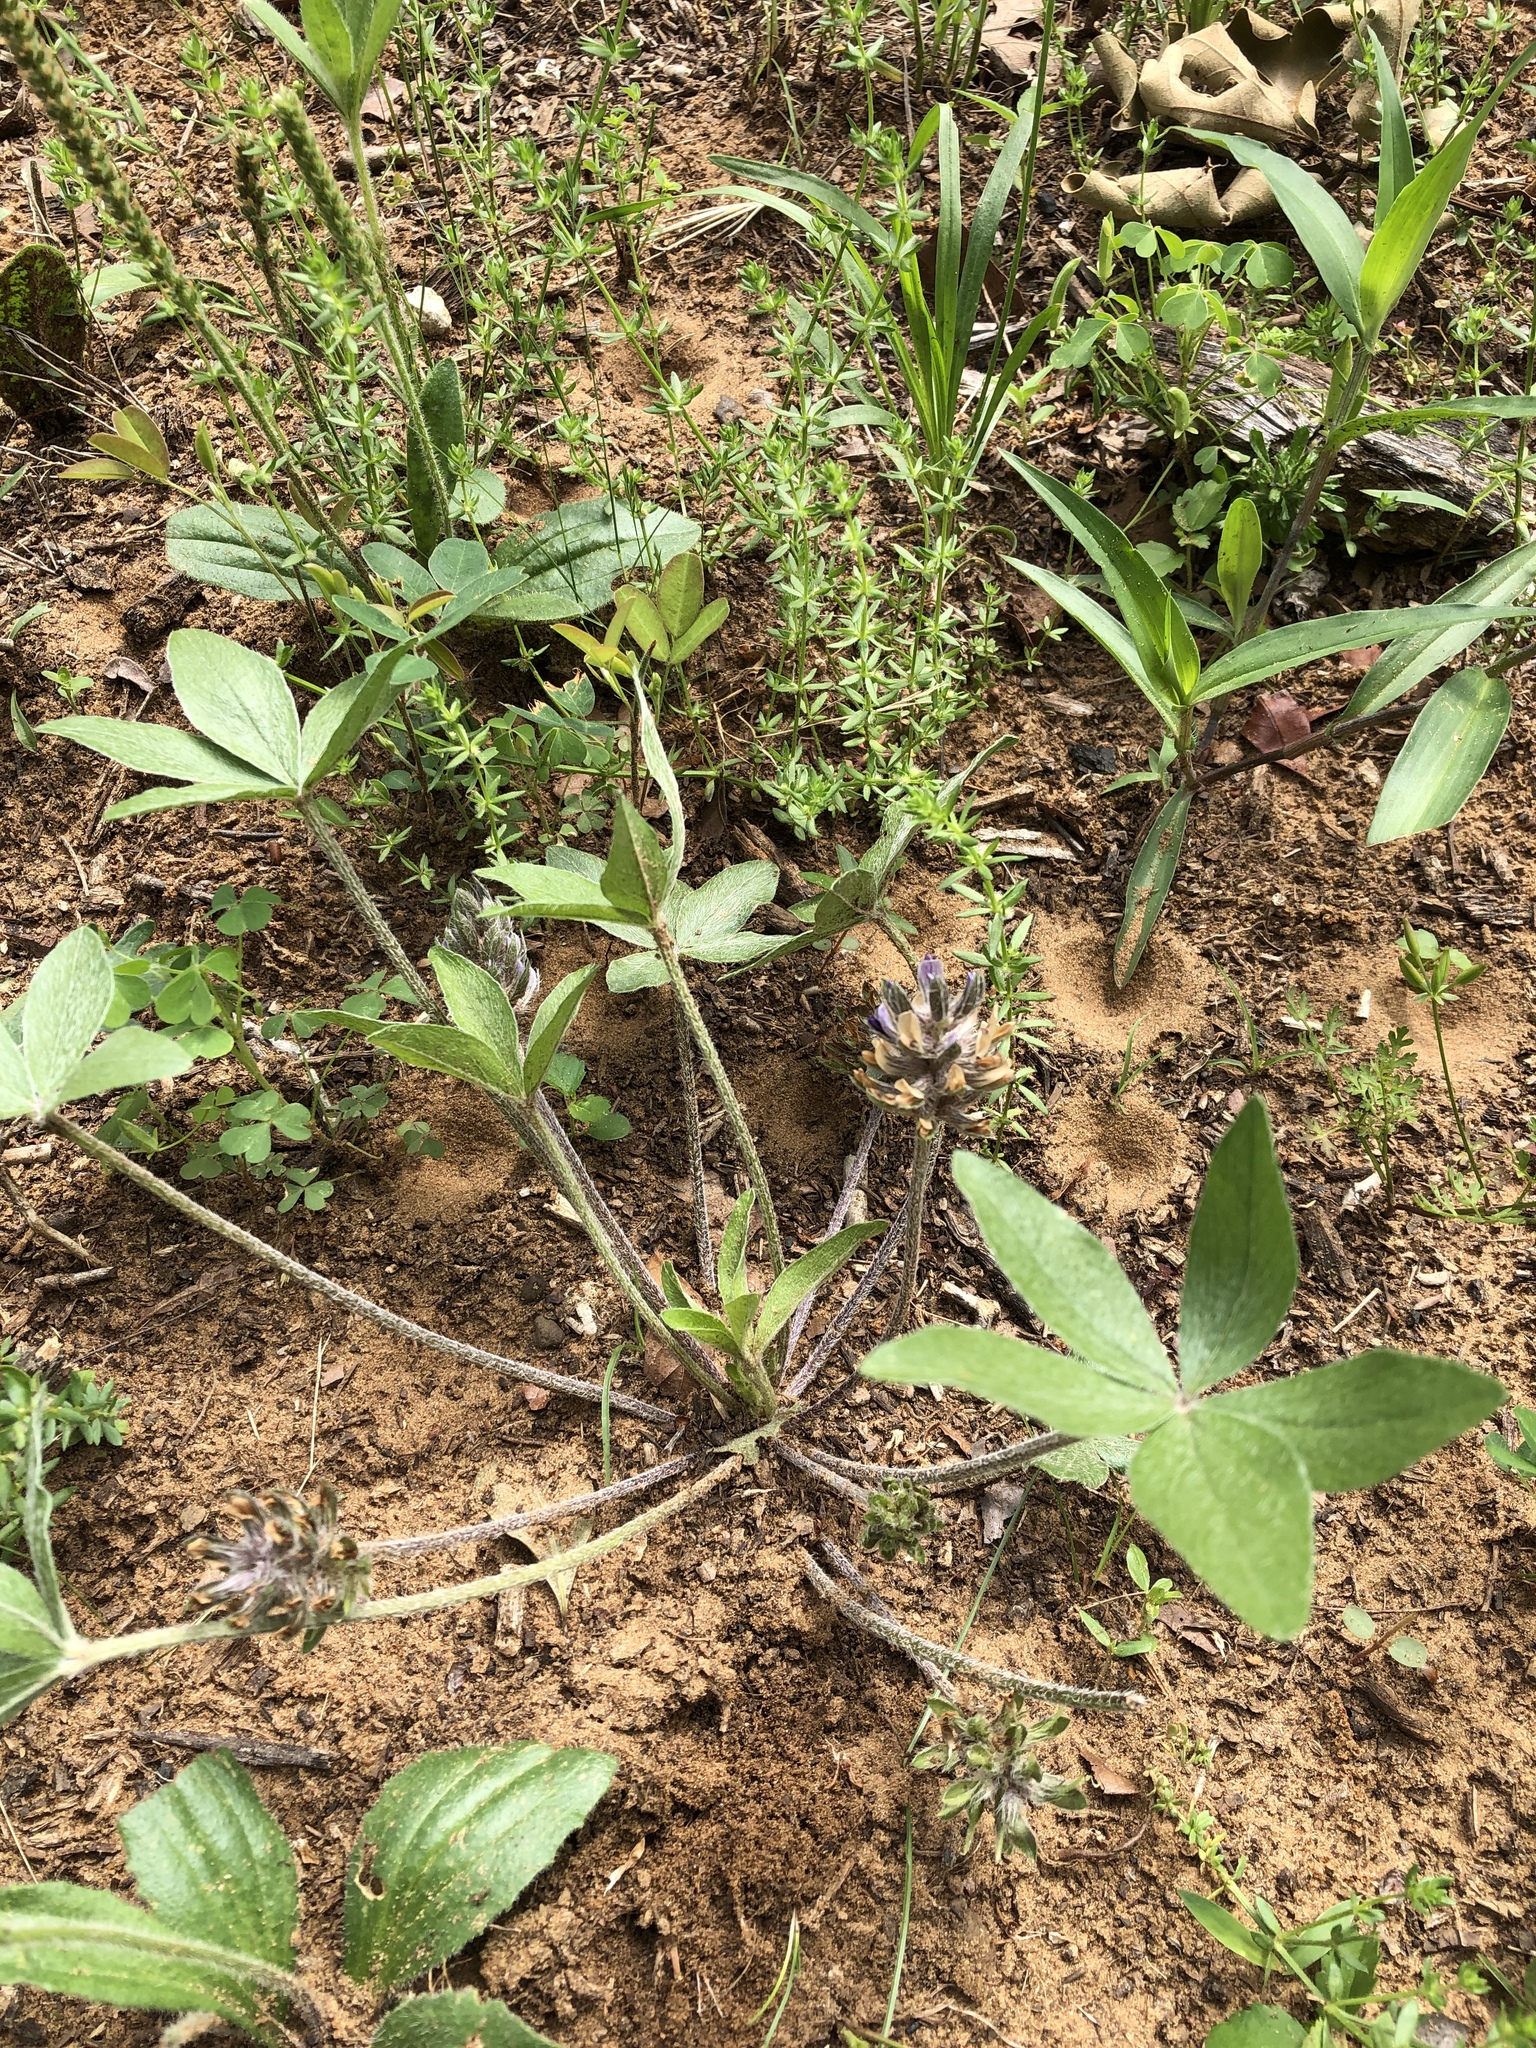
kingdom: Plantae
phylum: Tracheophyta
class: Magnoliopsida
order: Fabales
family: Fabaceae
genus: Pediomelum
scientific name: Pediomelum hypogaeum
